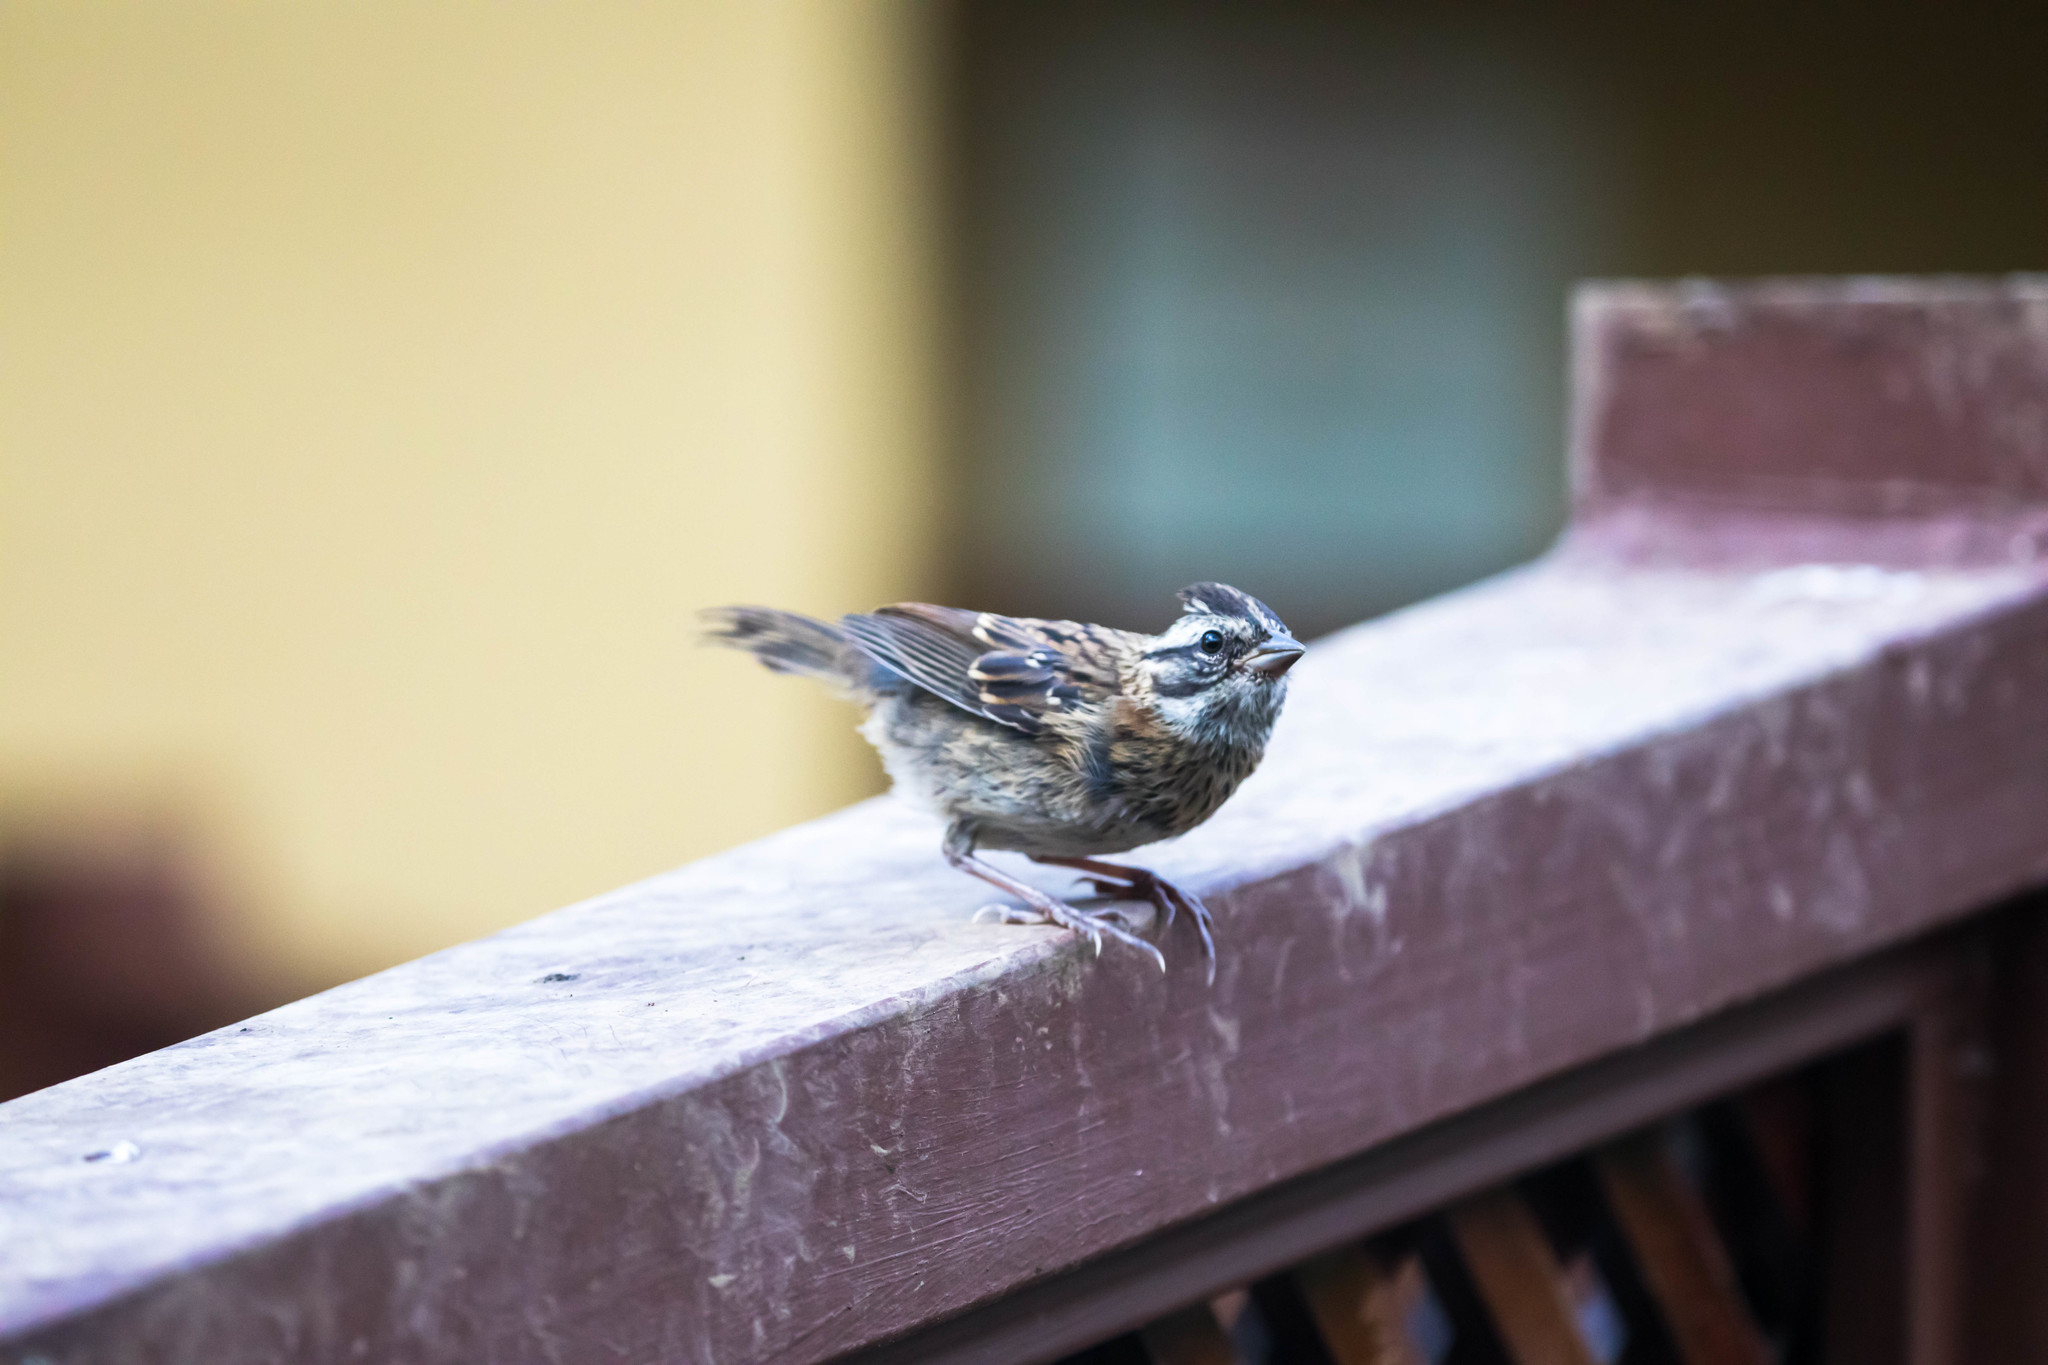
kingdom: Animalia
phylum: Chordata
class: Aves
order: Passeriformes
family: Passerellidae
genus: Zonotrichia
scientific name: Zonotrichia capensis
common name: Rufous-collared sparrow
